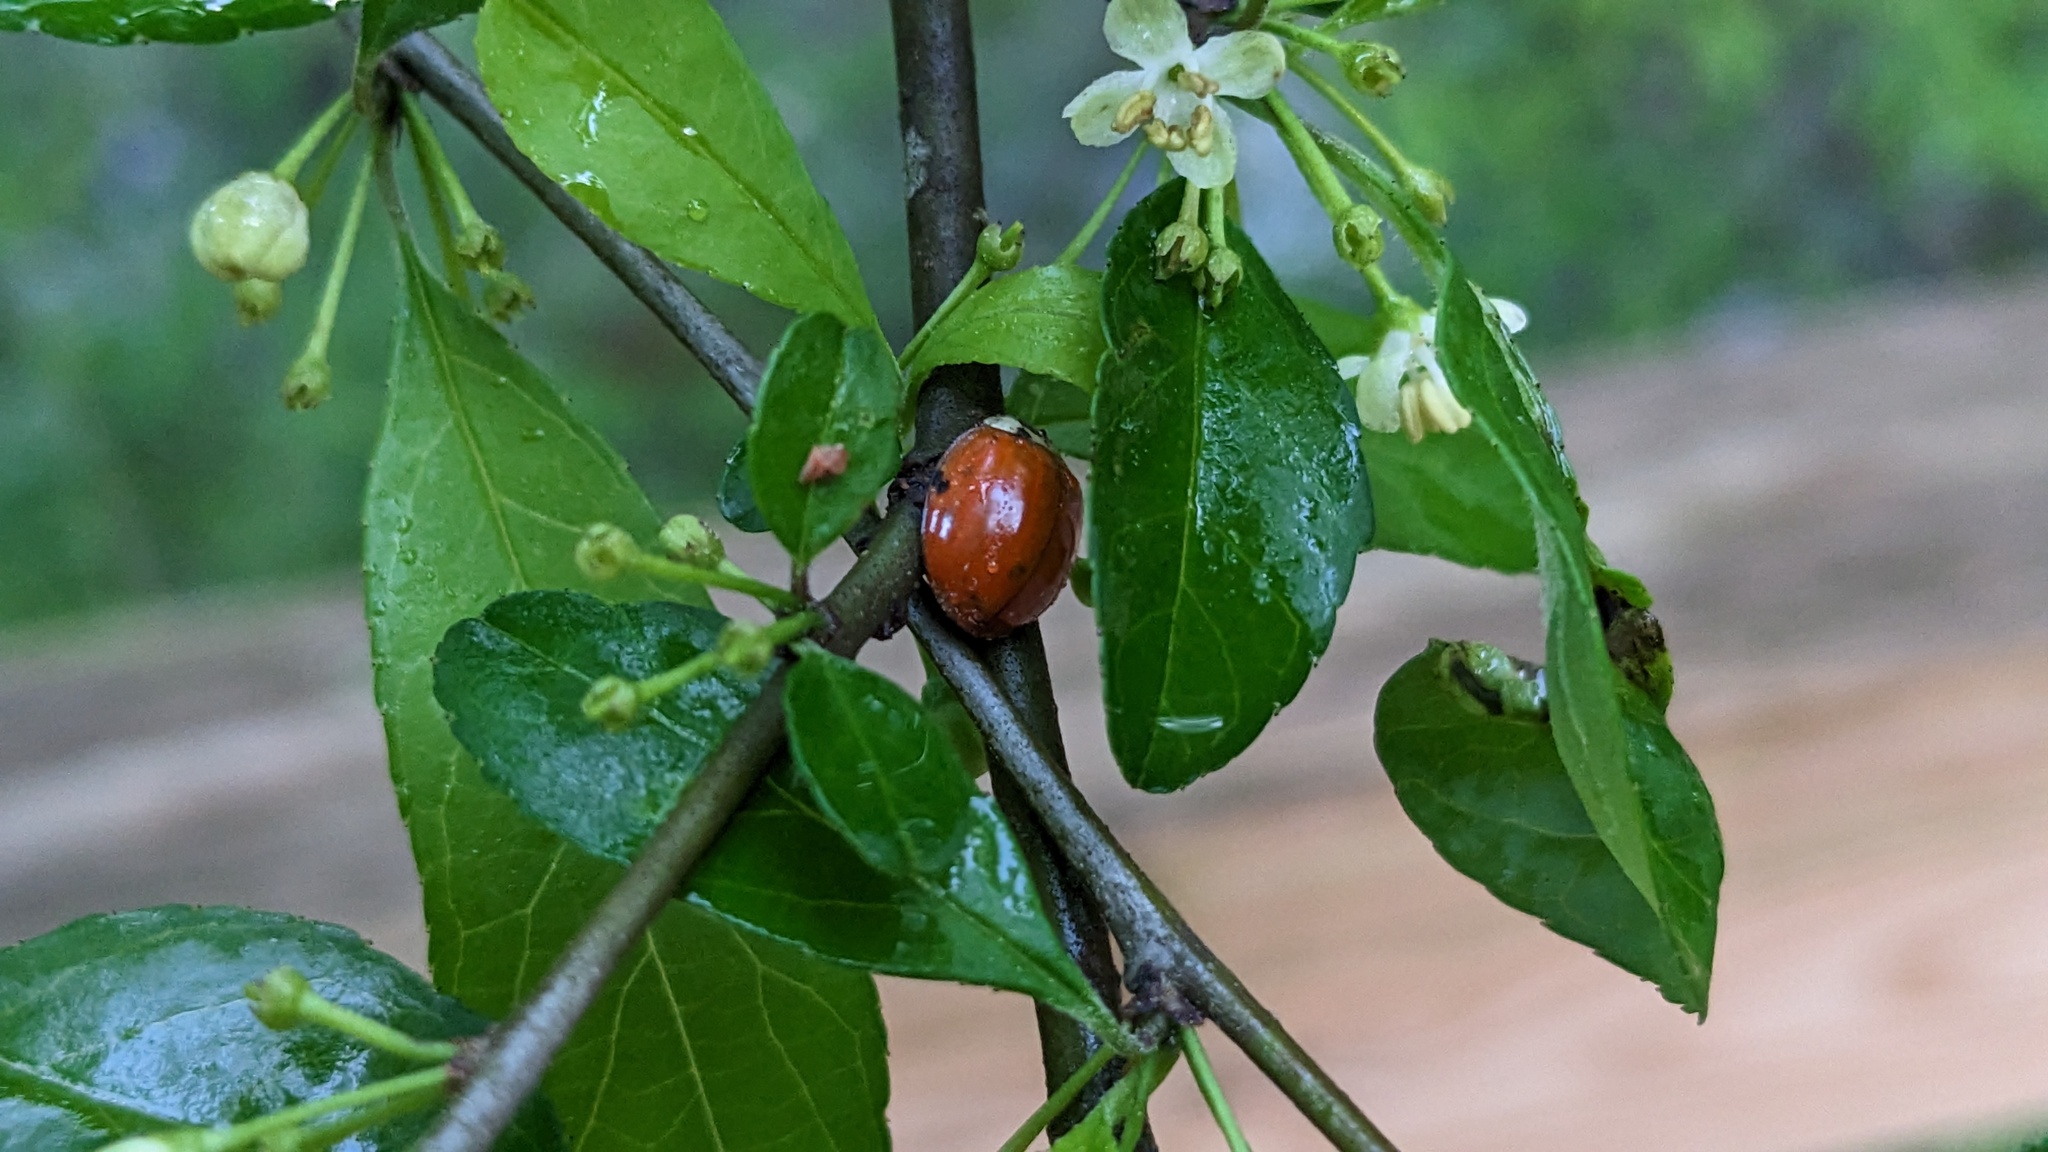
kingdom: Animalia
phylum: Arthropoda
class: Insecta
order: Coleoptera
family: Coccinellidae
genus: Harmonia
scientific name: Harmonia axyridis
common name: Harlequin ladybird
